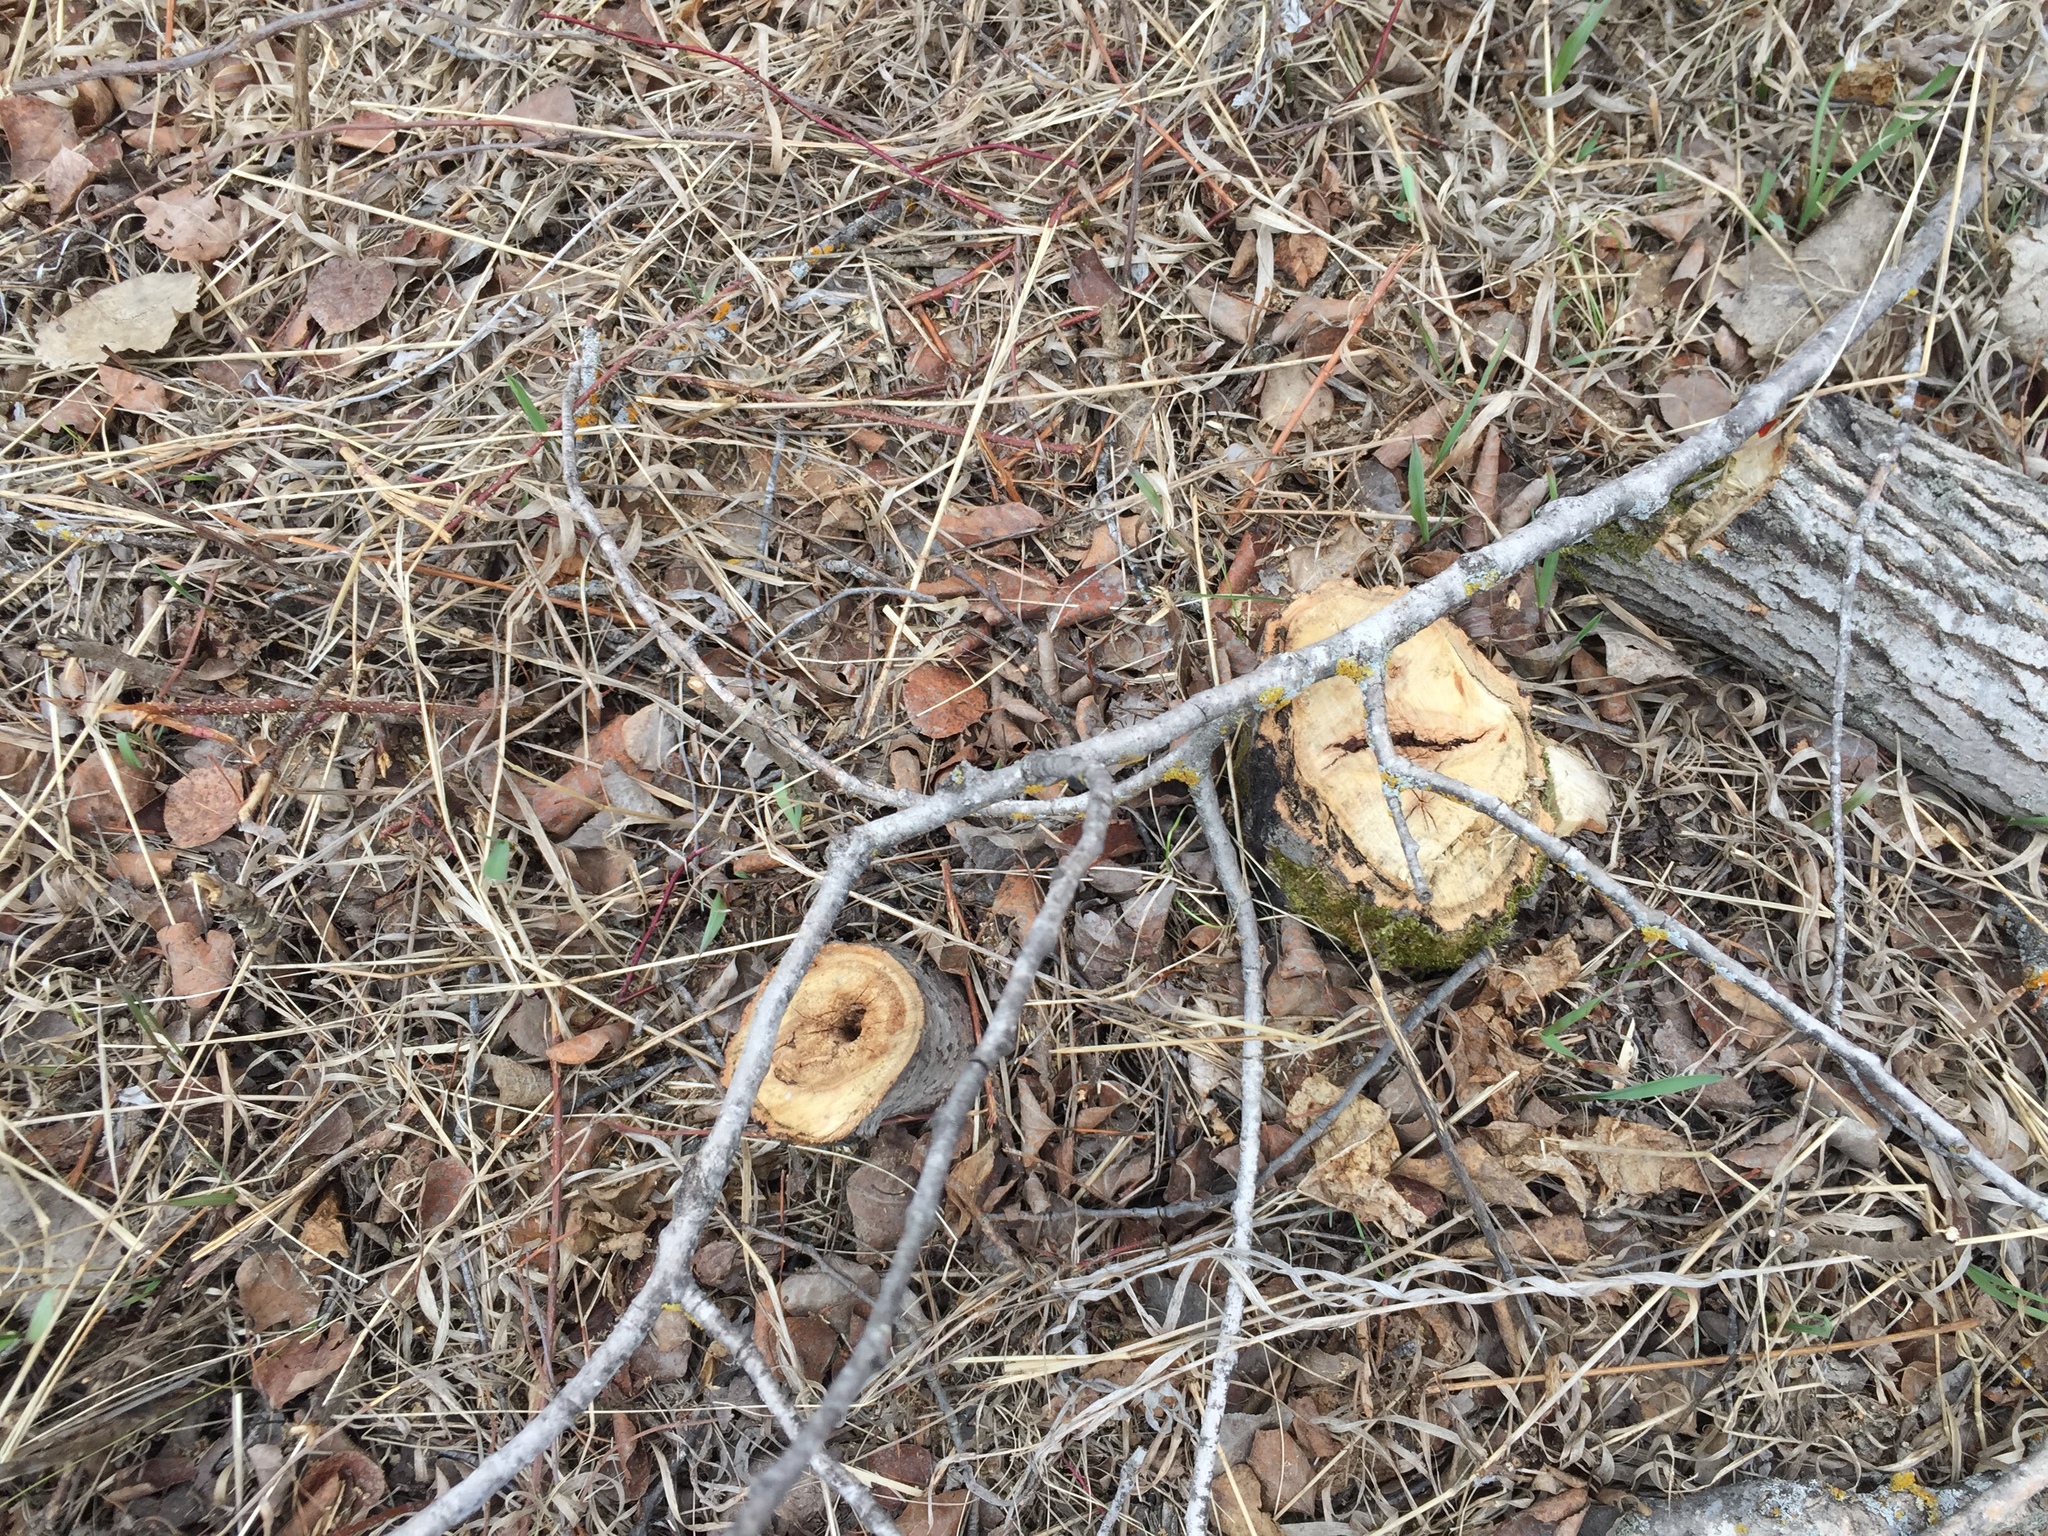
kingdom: Plantae
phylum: Tracheophyta
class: Magnoliopsida
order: Fagales
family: Fagaceae
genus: Quercus
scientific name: Quercus macrocarpa
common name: Bur oak
